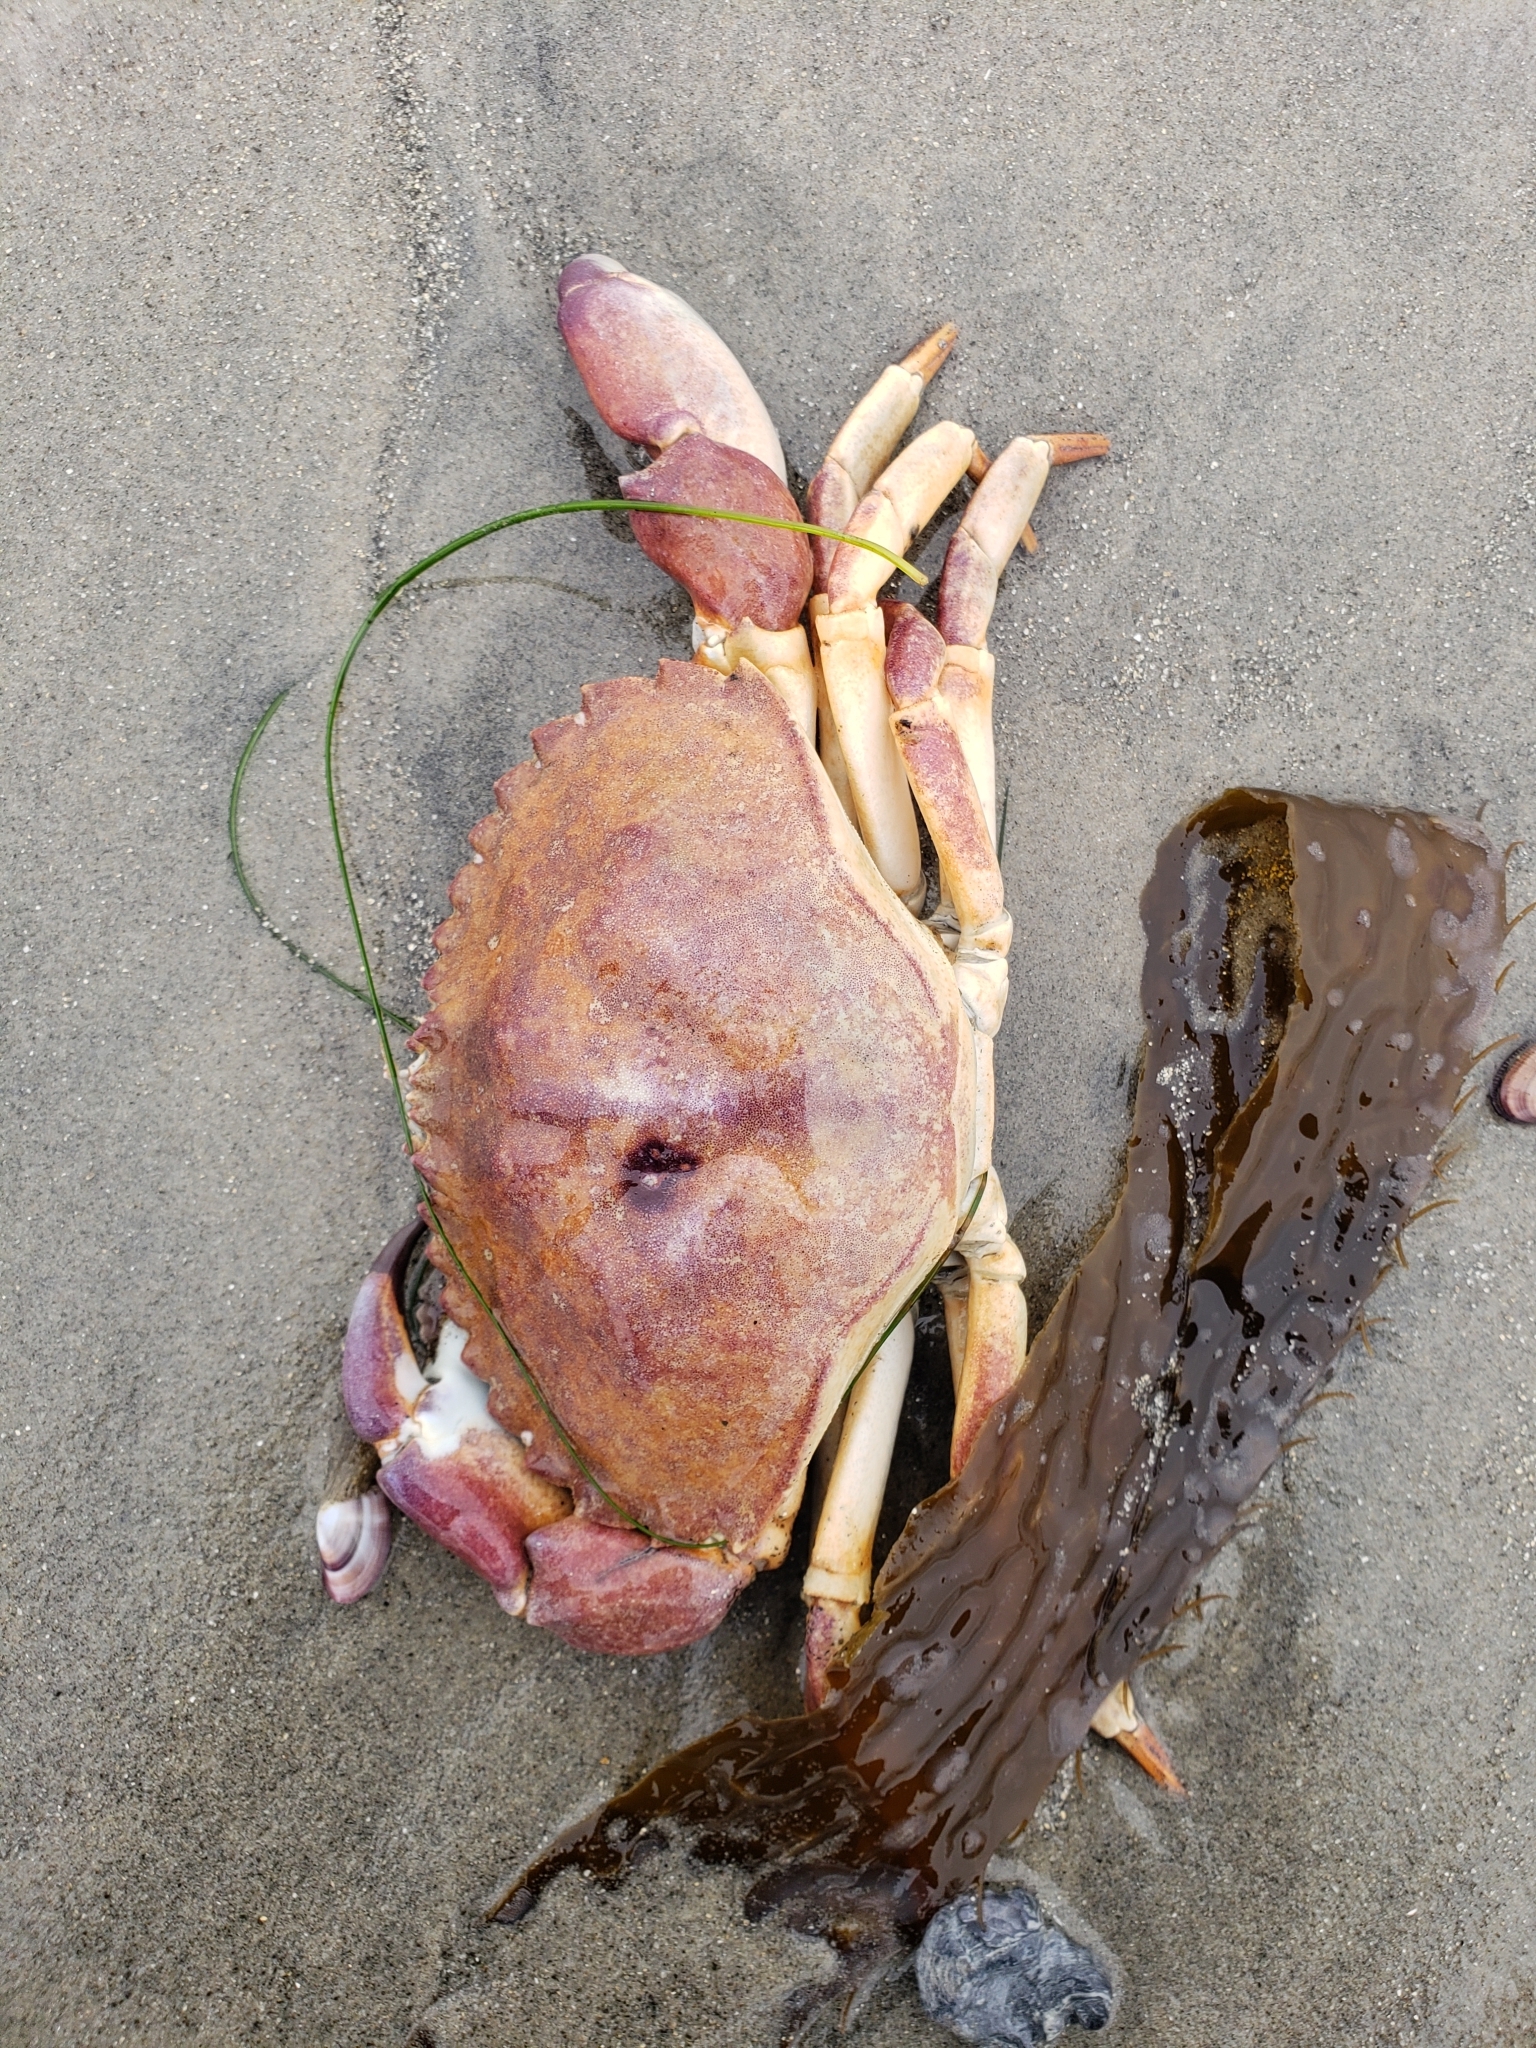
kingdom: Animalia
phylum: Arthropoda
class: Malacostraca
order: Decapoda
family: Cancridae
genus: Metacarcinus
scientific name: Metacarcinus anthonyi
